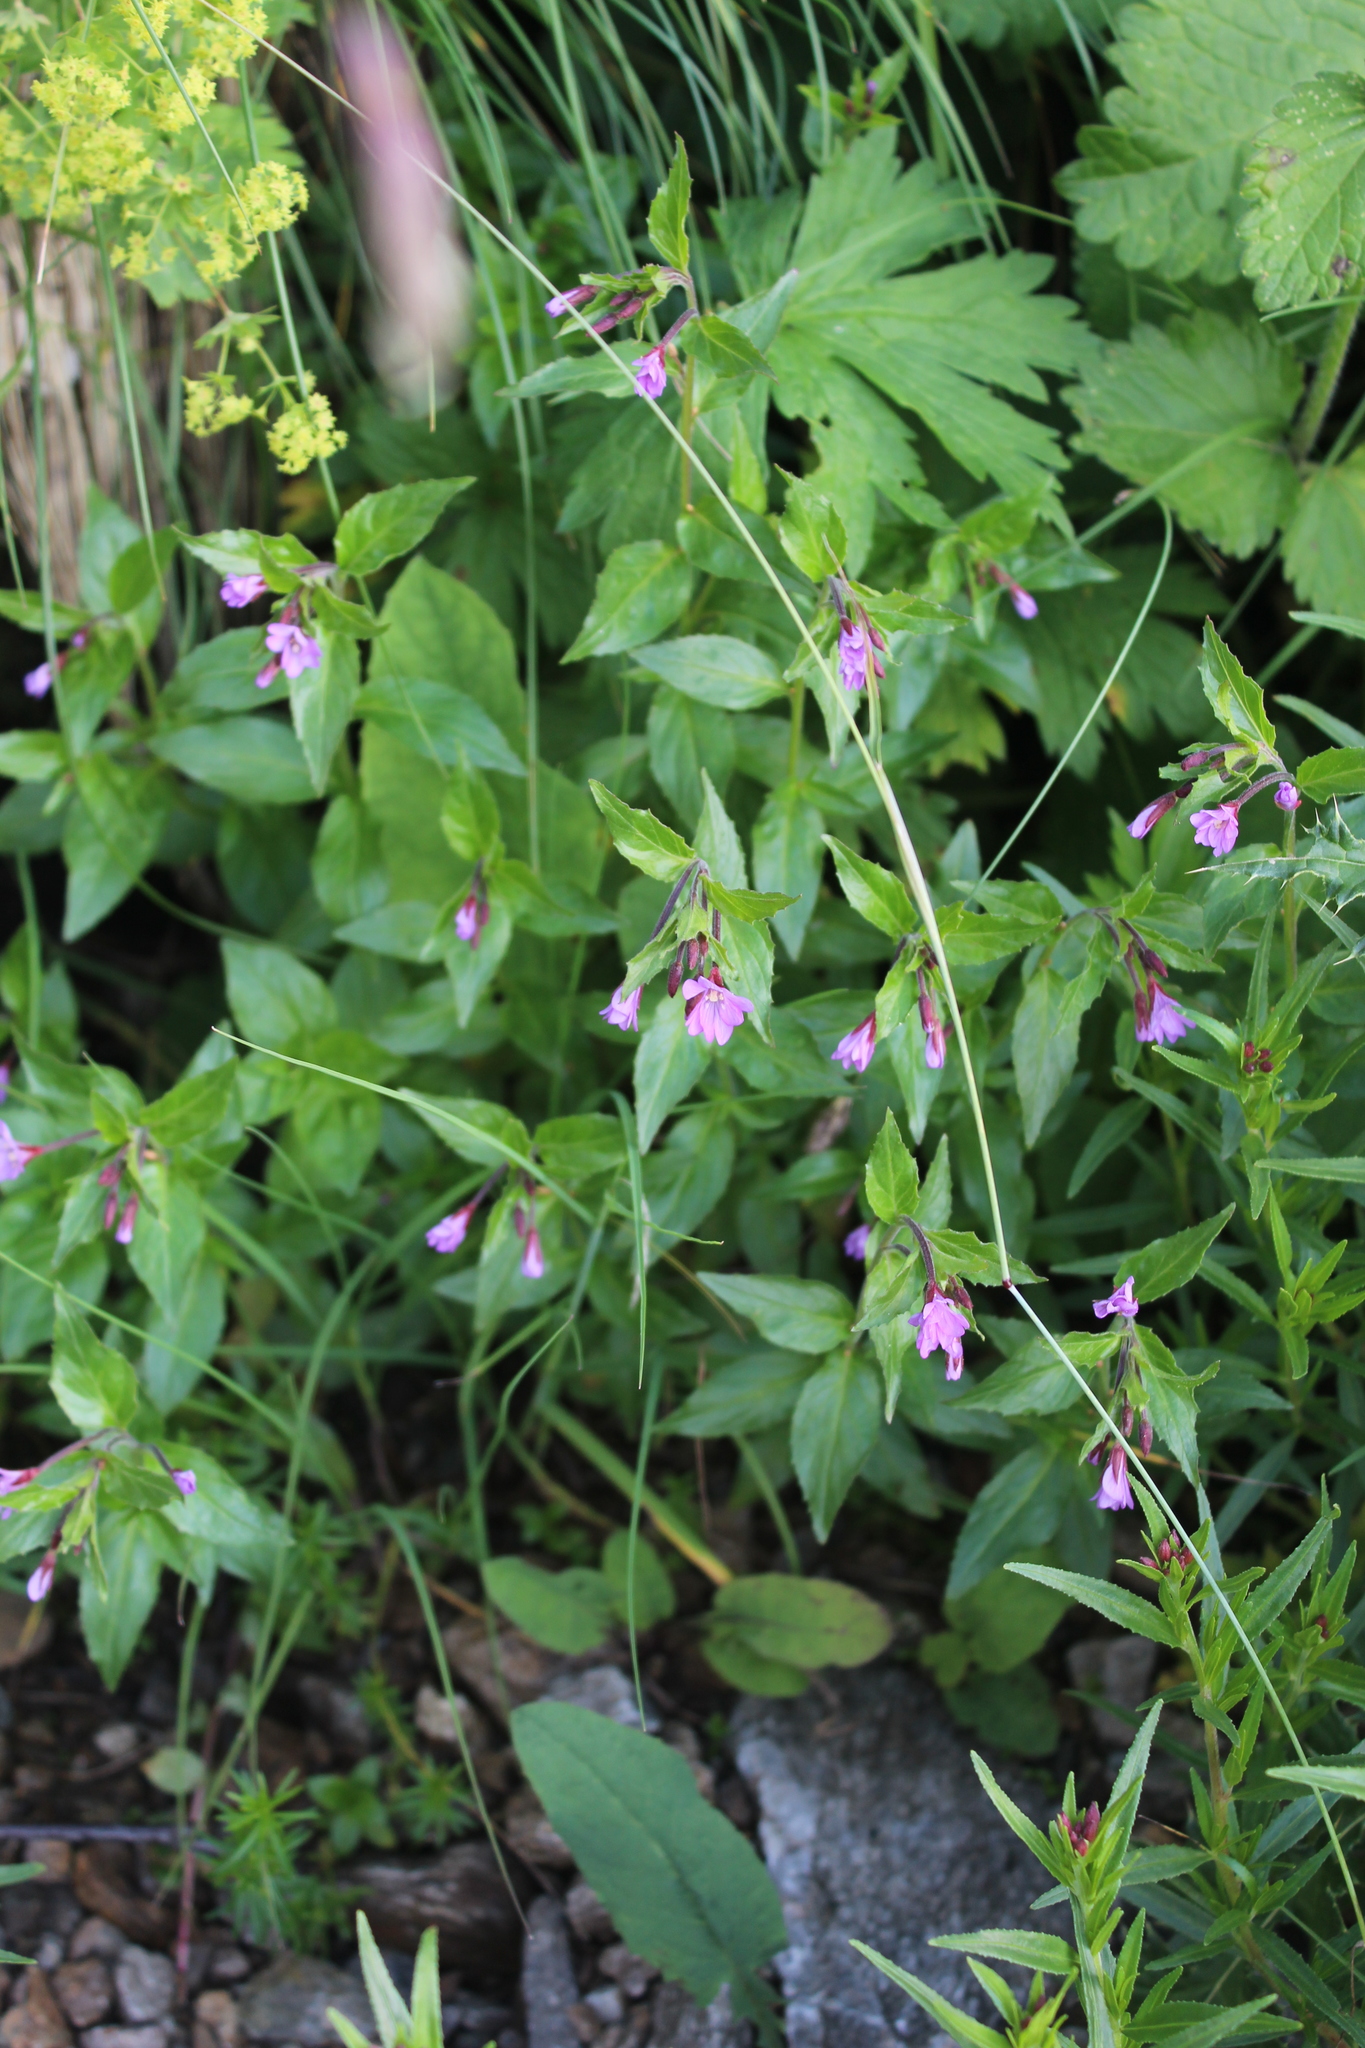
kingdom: Plantae
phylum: Tracheophyta
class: Magnoliopsida
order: Myrtales
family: Onagraceae
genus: Epilobium
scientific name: Epilobium algidum
